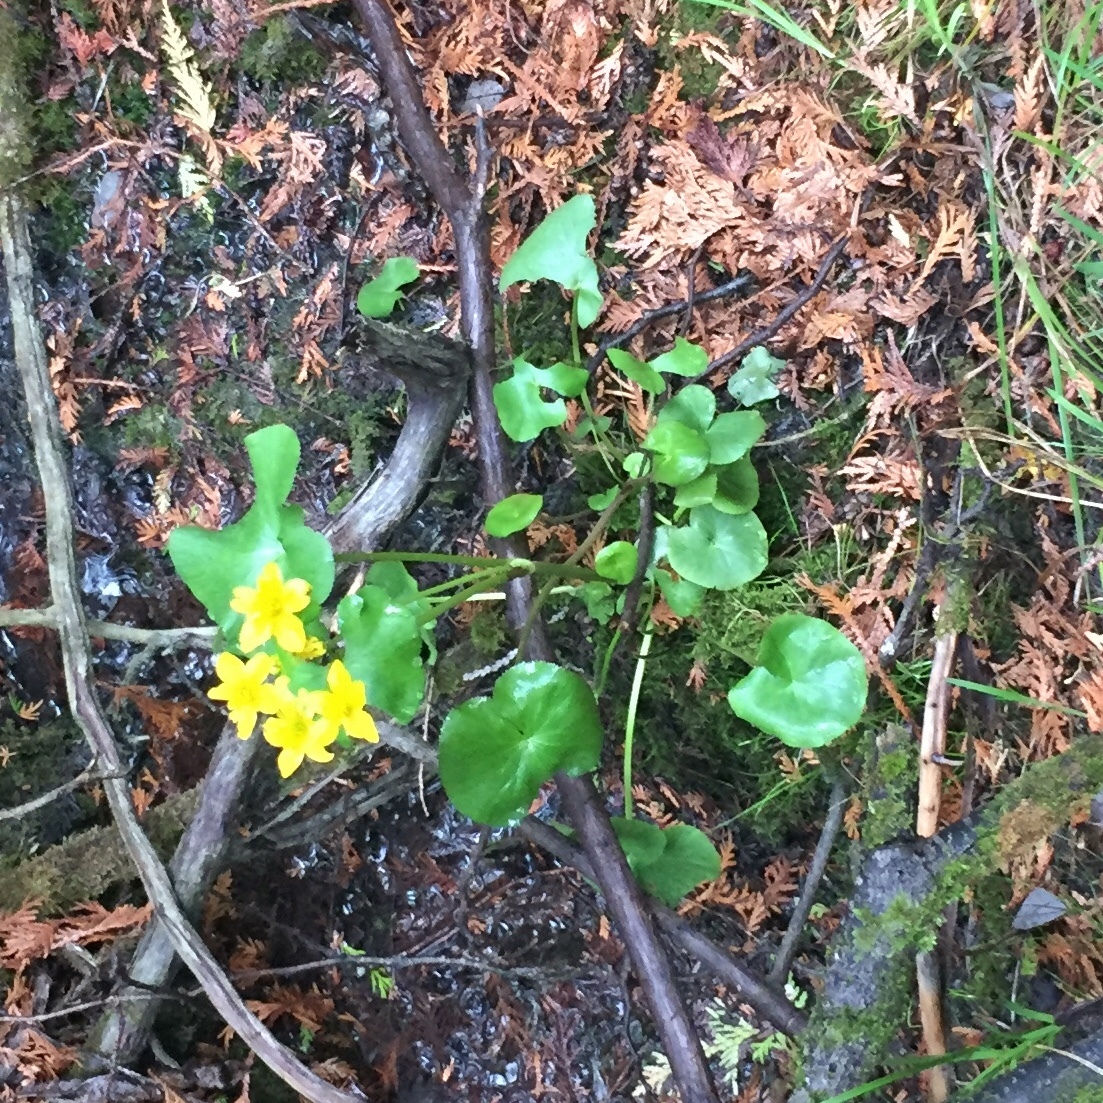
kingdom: Plantae
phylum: Tracheophyta
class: Magnoliopsida
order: Ranunculales
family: Ranunculaceae
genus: Caltha
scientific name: Caltha palustris
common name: Marsh marigold
